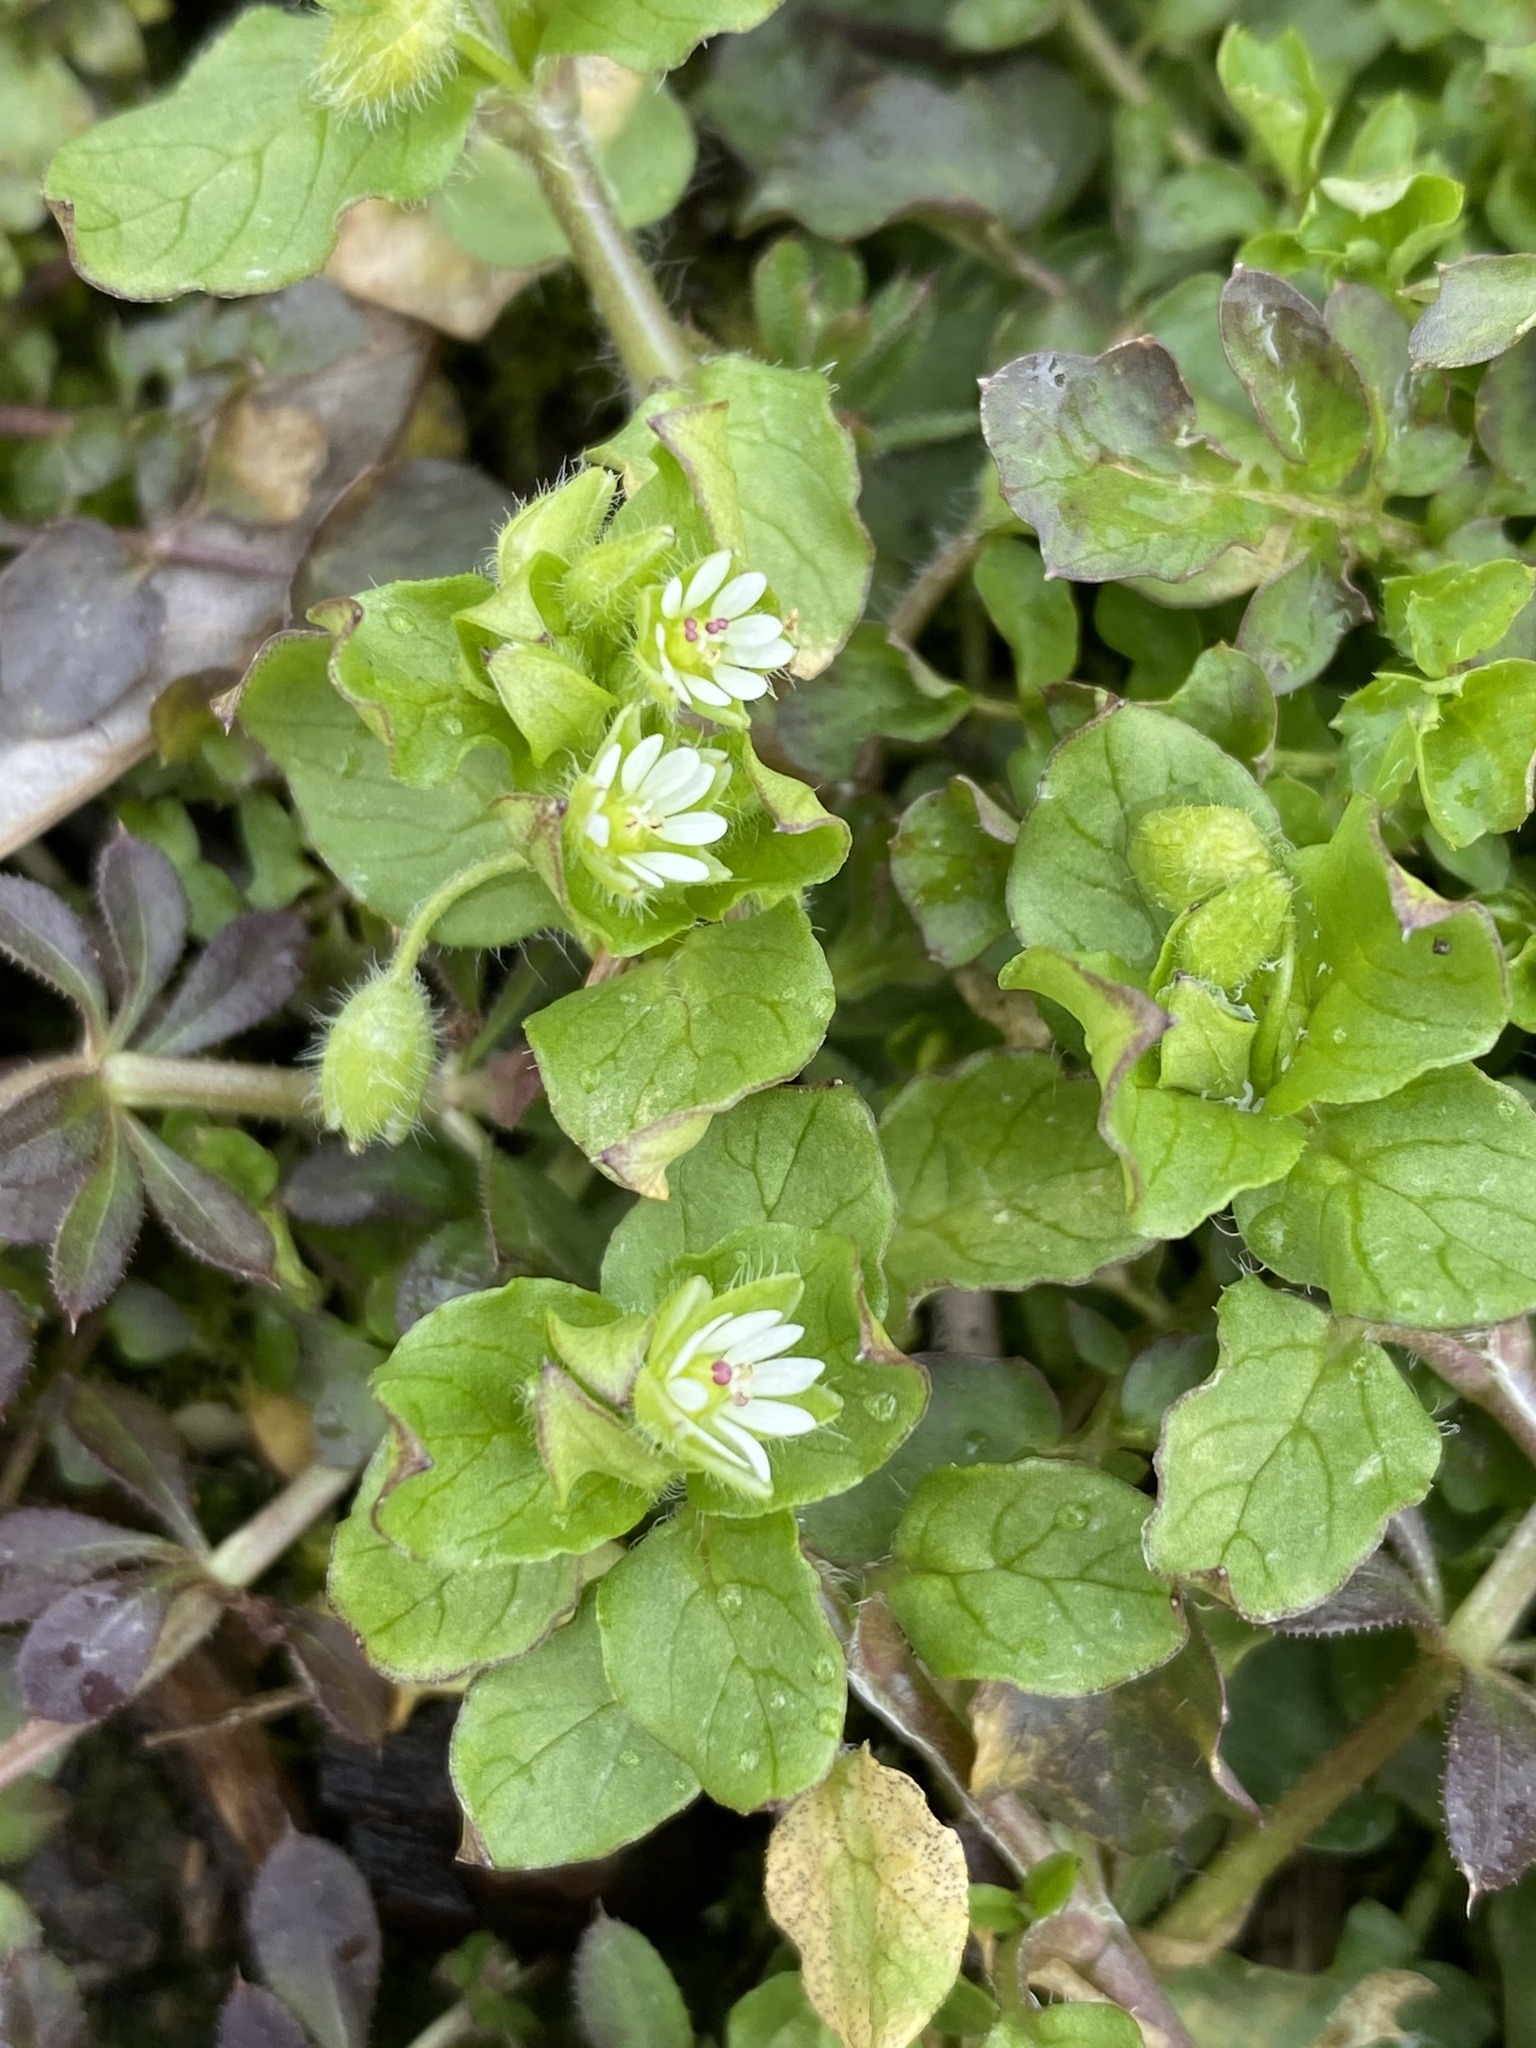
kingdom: Plantae
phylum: Tracheophyta
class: Magnoliopsida
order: Caryophyllales
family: Caryophyllaceae
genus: Stellaria
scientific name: Stellaria media
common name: Common chickweed
